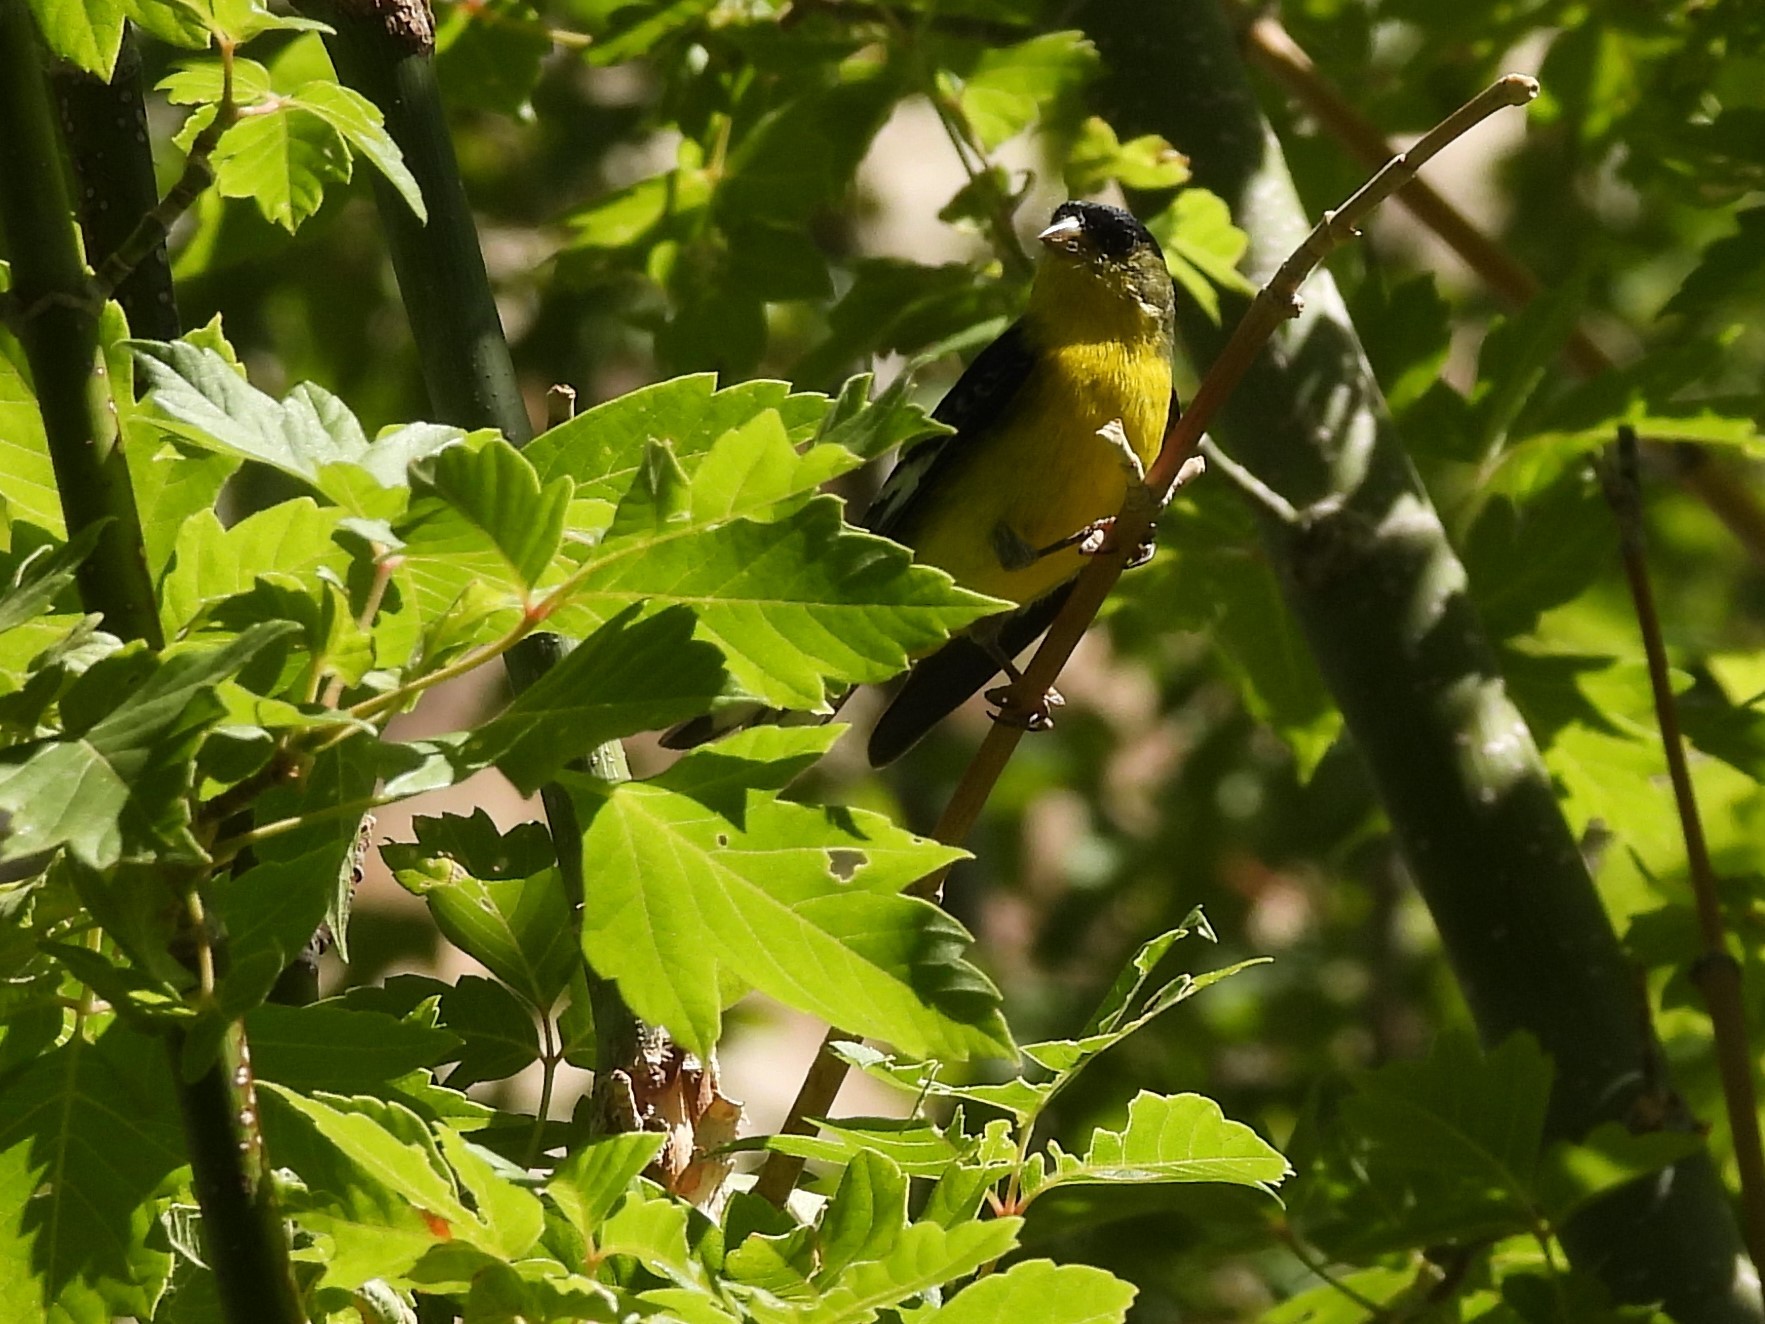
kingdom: Animalia
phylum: Chordata
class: Aves
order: Passeriformes
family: Fringillidae
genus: Spinus
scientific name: Spinus psaltria
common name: Lesser goldfinch
